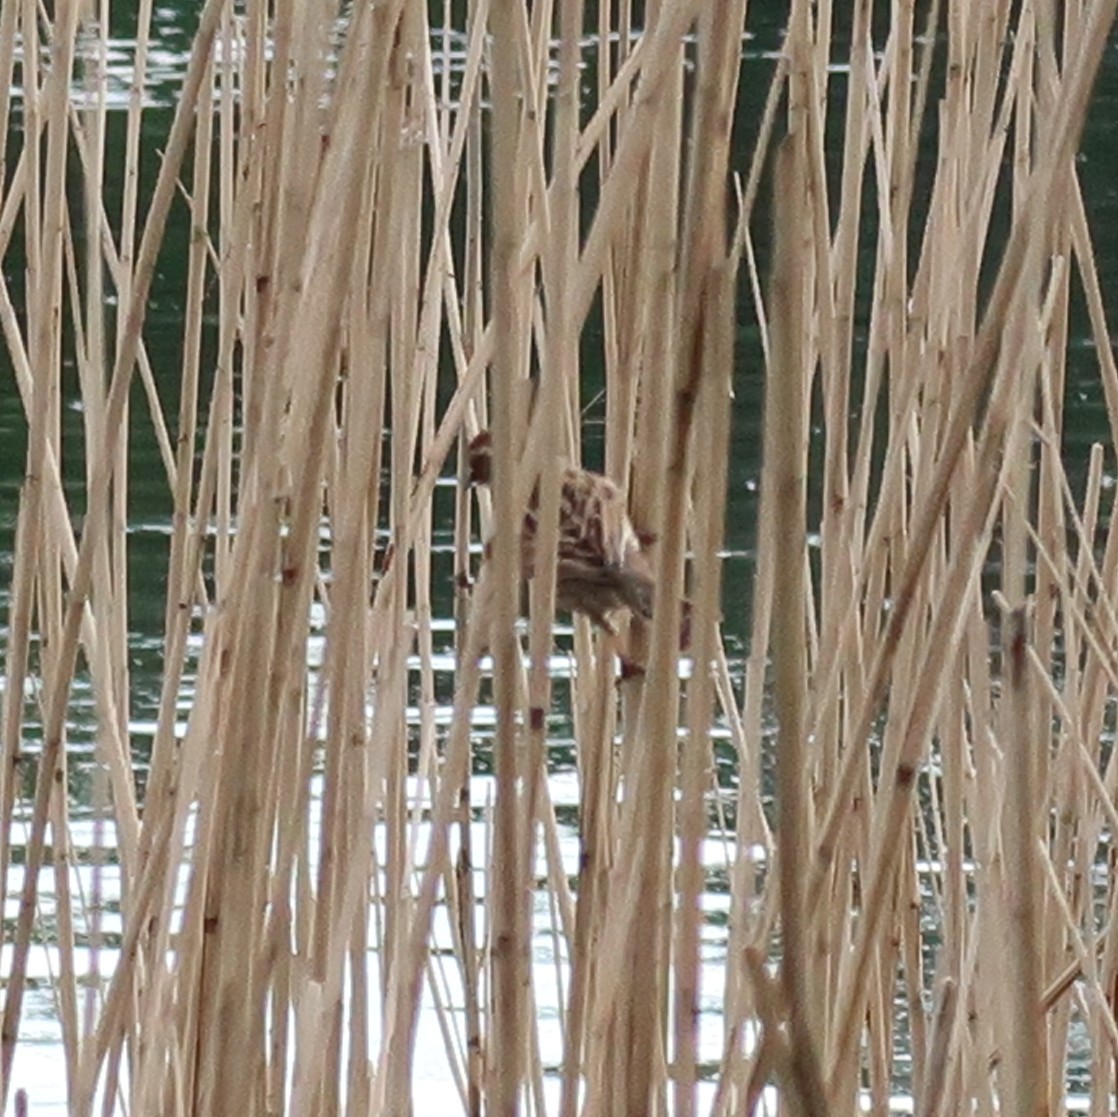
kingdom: Animalia
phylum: Chordata
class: Aves
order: Passeriformes
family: Acrocephalidae
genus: Acrocephalus
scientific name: Acrocephalus schoenobaenus
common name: Sedge warbler
